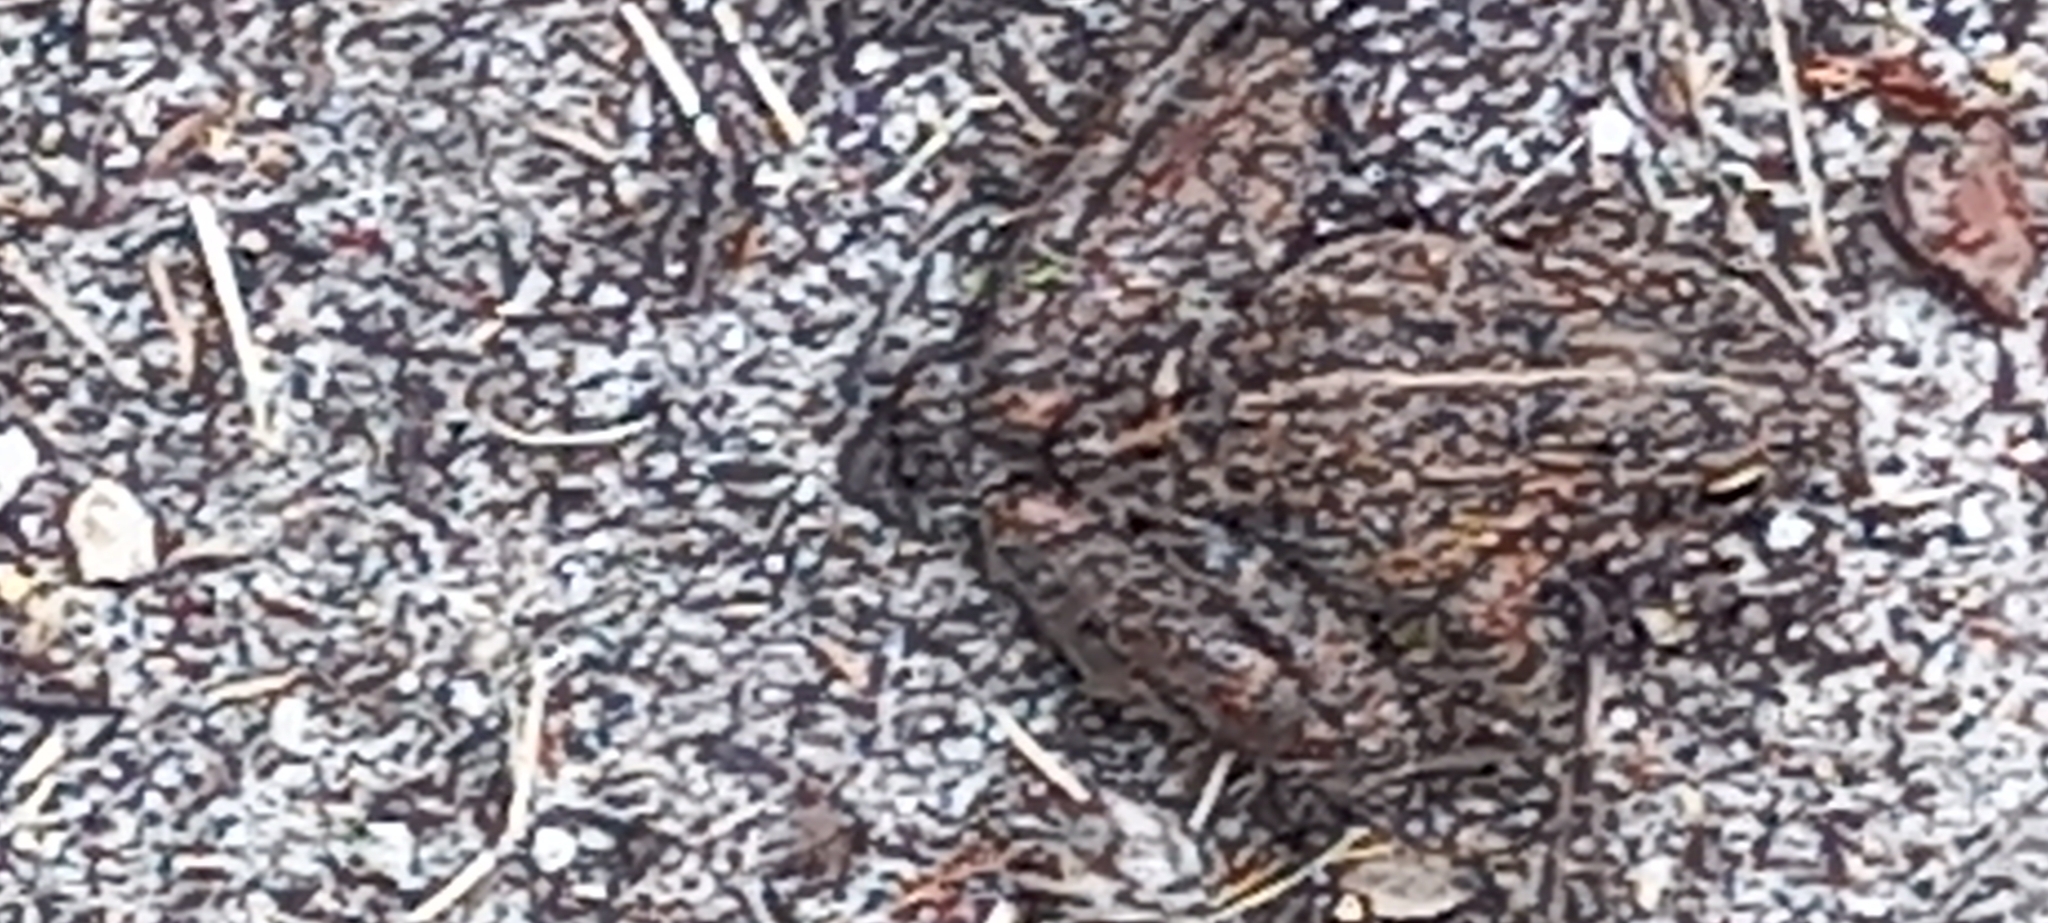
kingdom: Animalia
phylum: Chordata
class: Amphibia
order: Anura
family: Pyxicephalidae
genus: Strongylopus
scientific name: Strongylopus grayii
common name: Gray's stream frog
